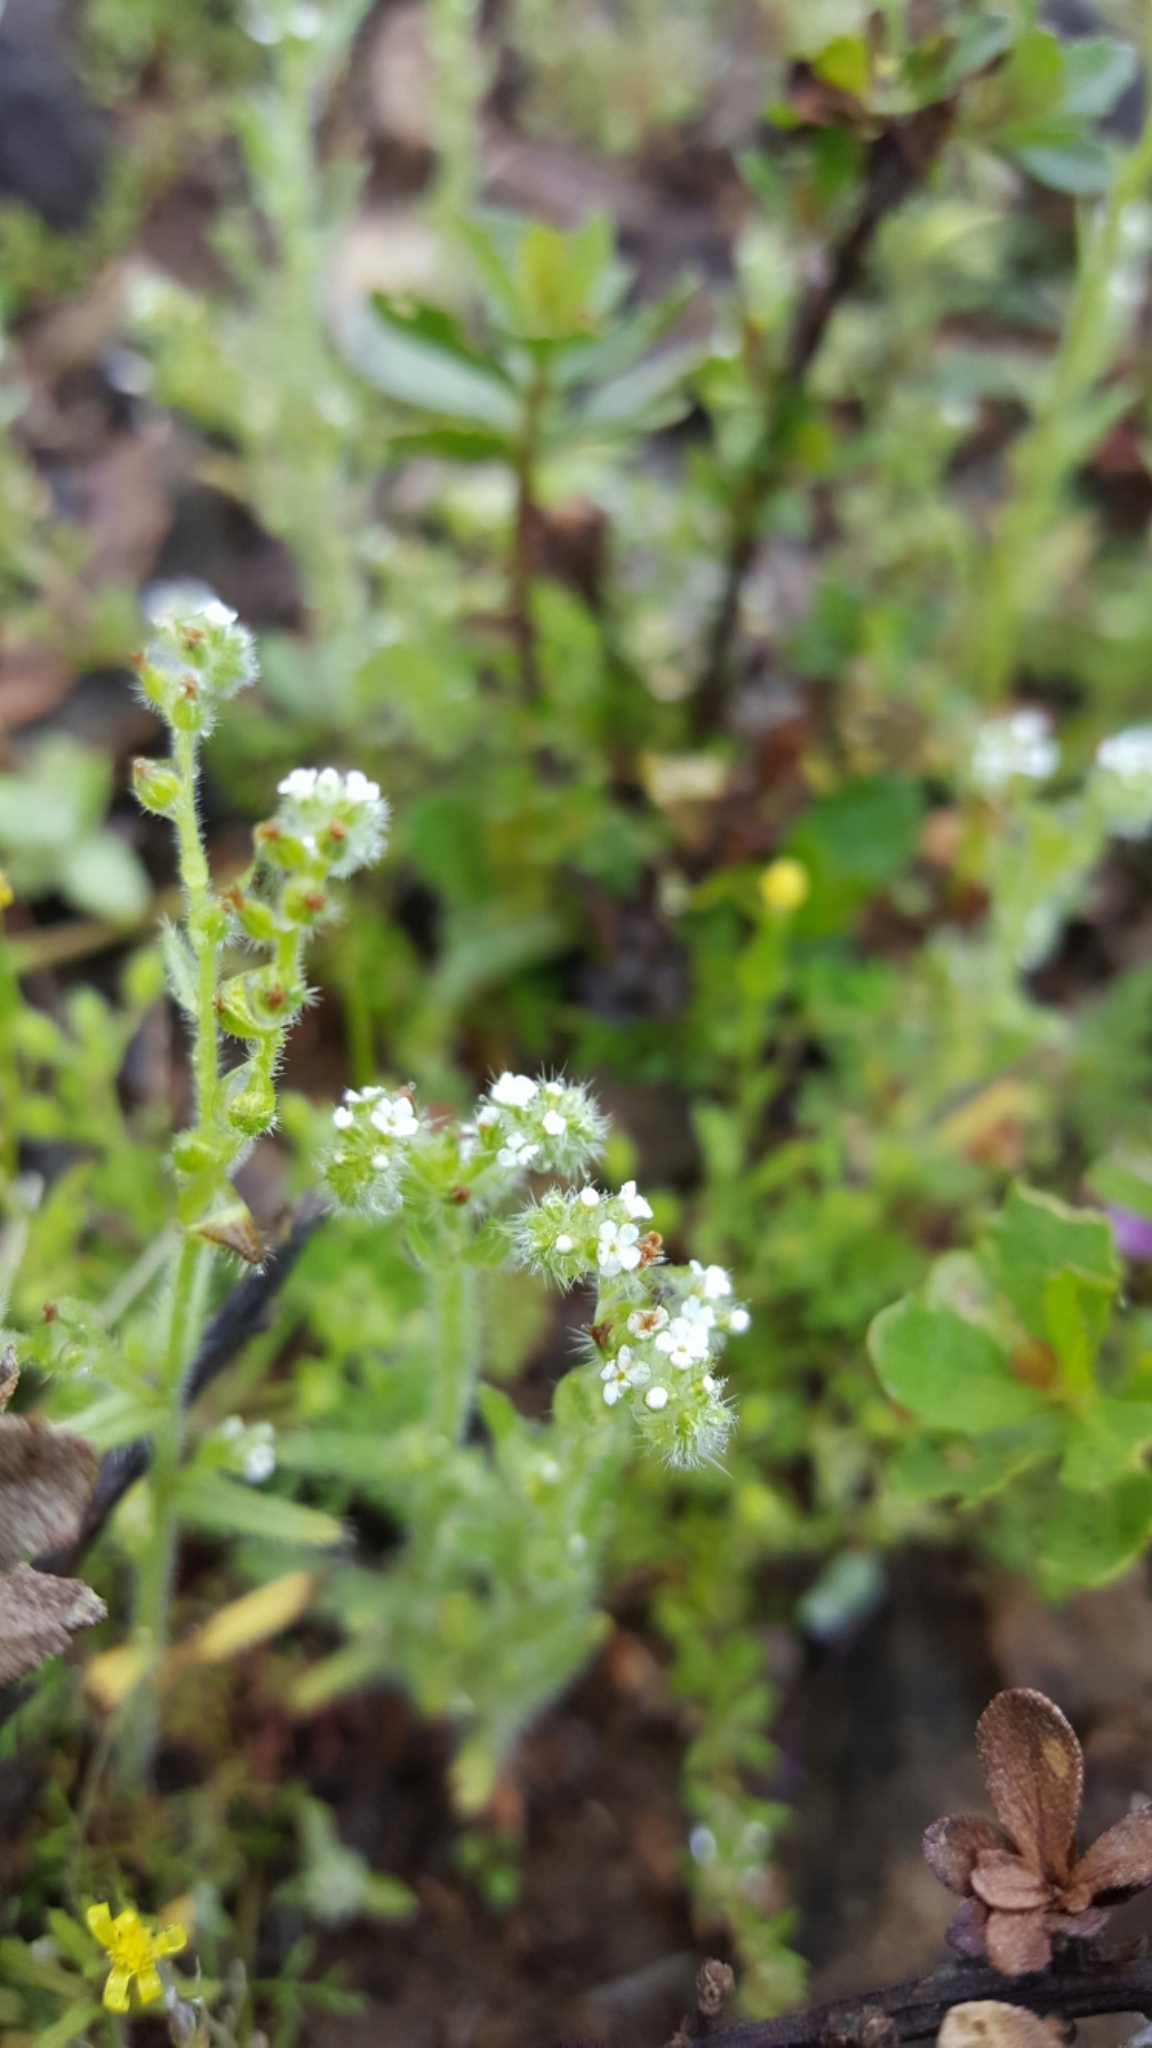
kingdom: Plantae
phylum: Tracheophyta
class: Magnoliopsida
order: Boraginales
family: Boraginaceae
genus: Johnstonella
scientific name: Johnstonella micromeres
